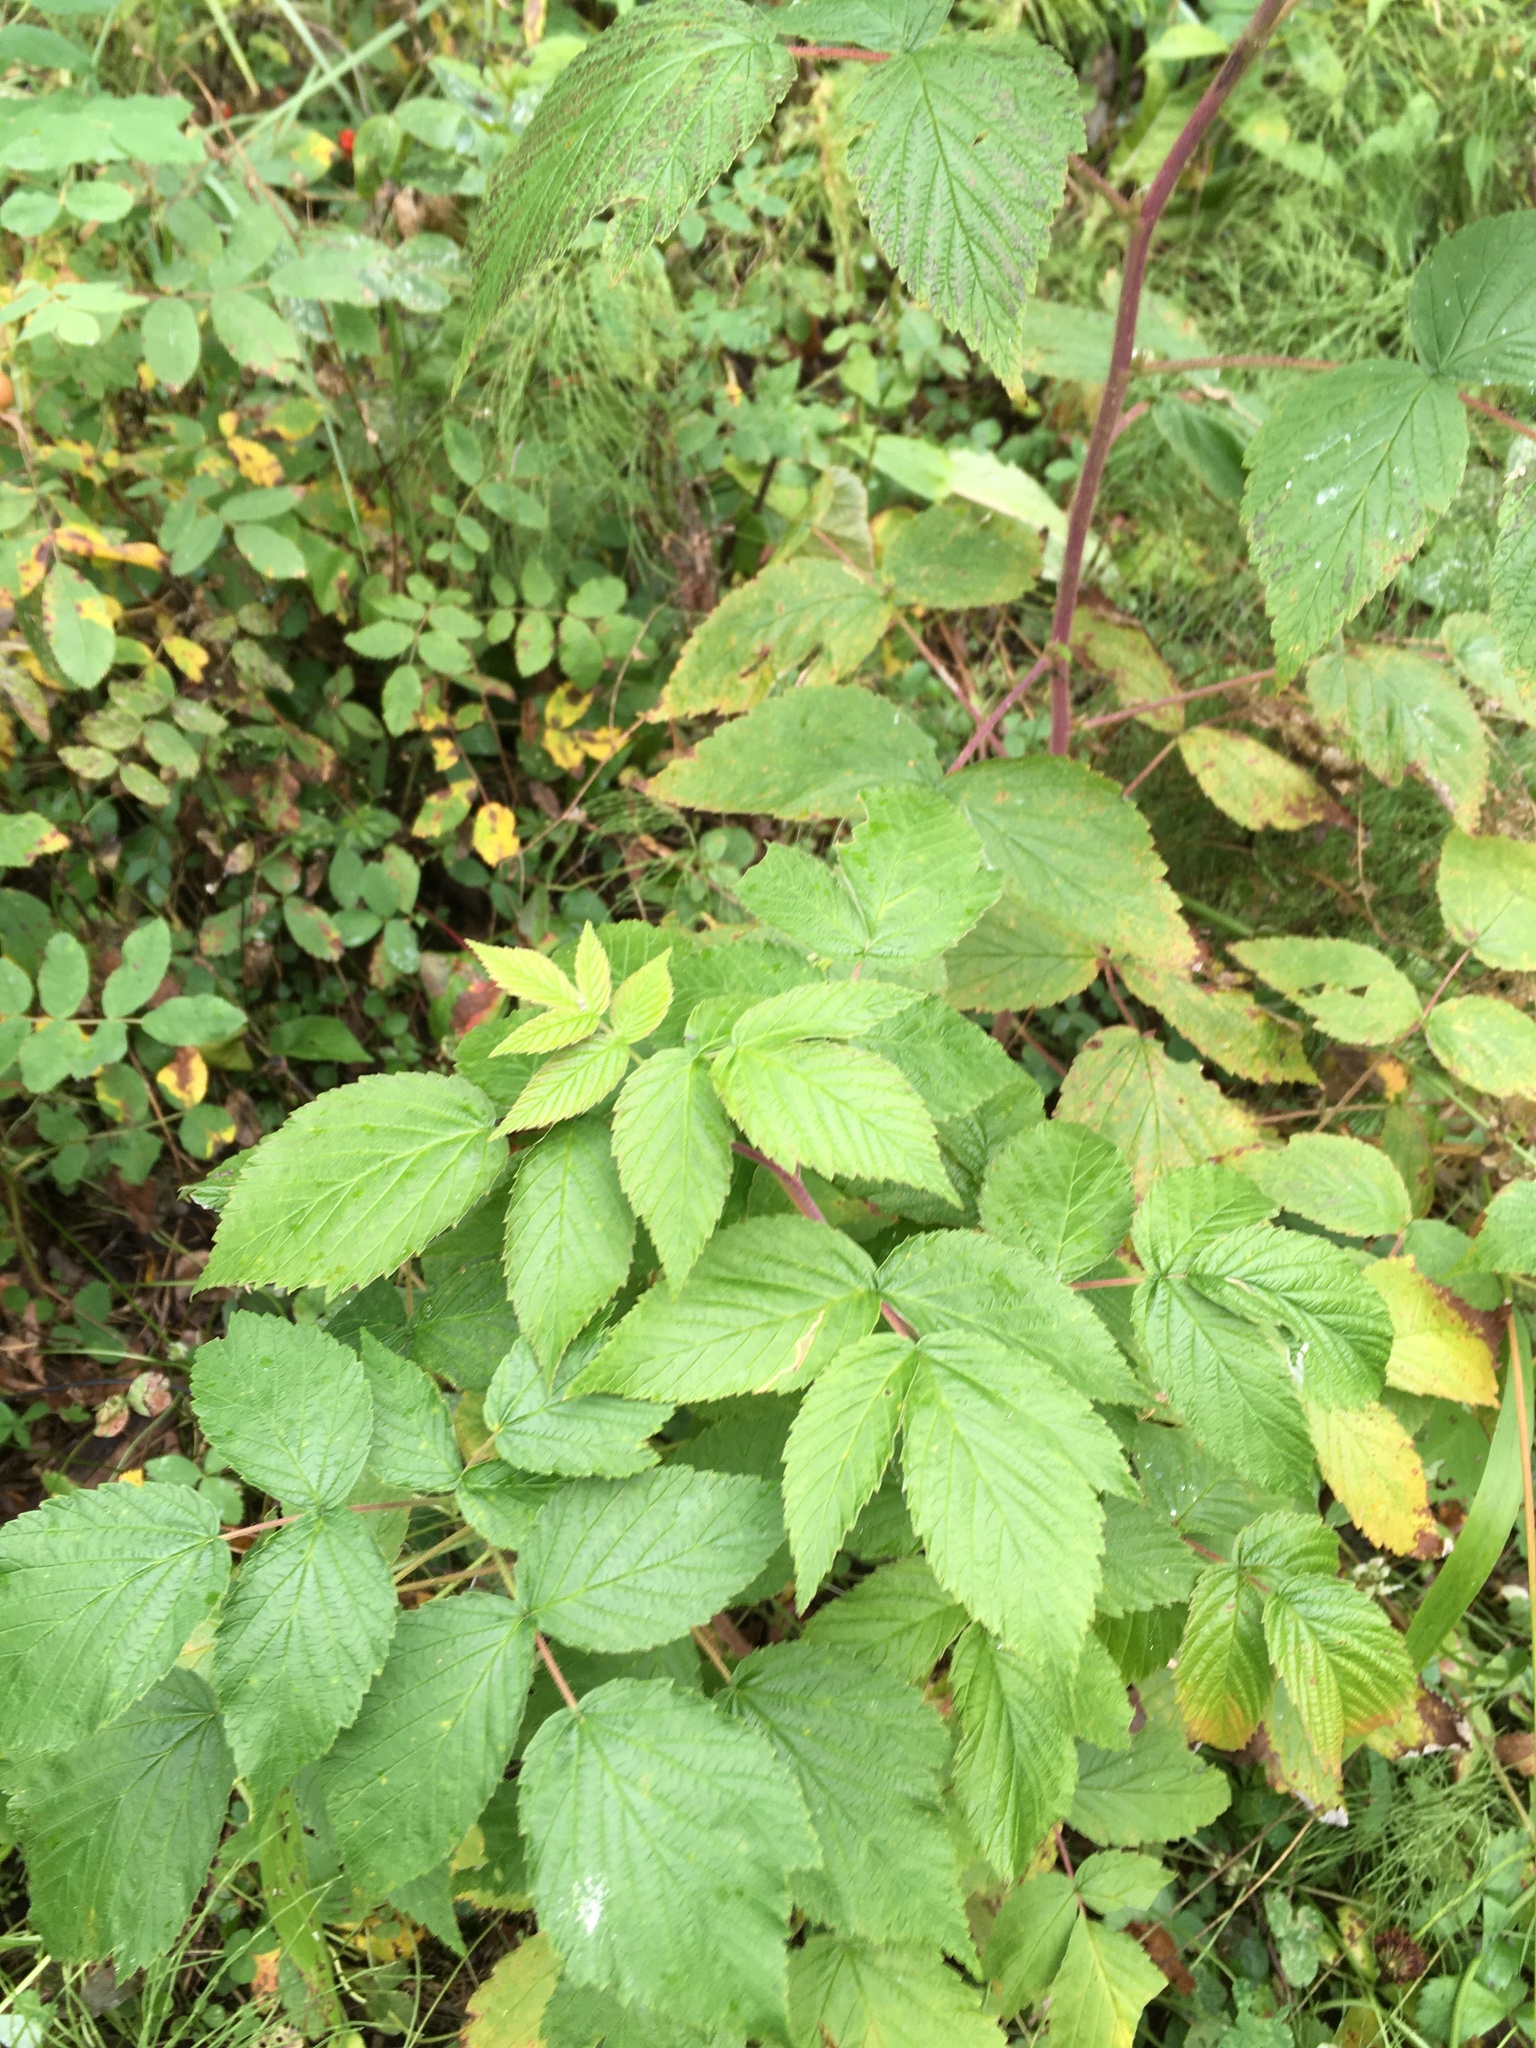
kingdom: Plantae
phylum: Tracheophyta
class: Magnoliopsida
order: Rosales
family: Rosaceae
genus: Rubus
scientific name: Rubus idaeus
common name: Raspberry
